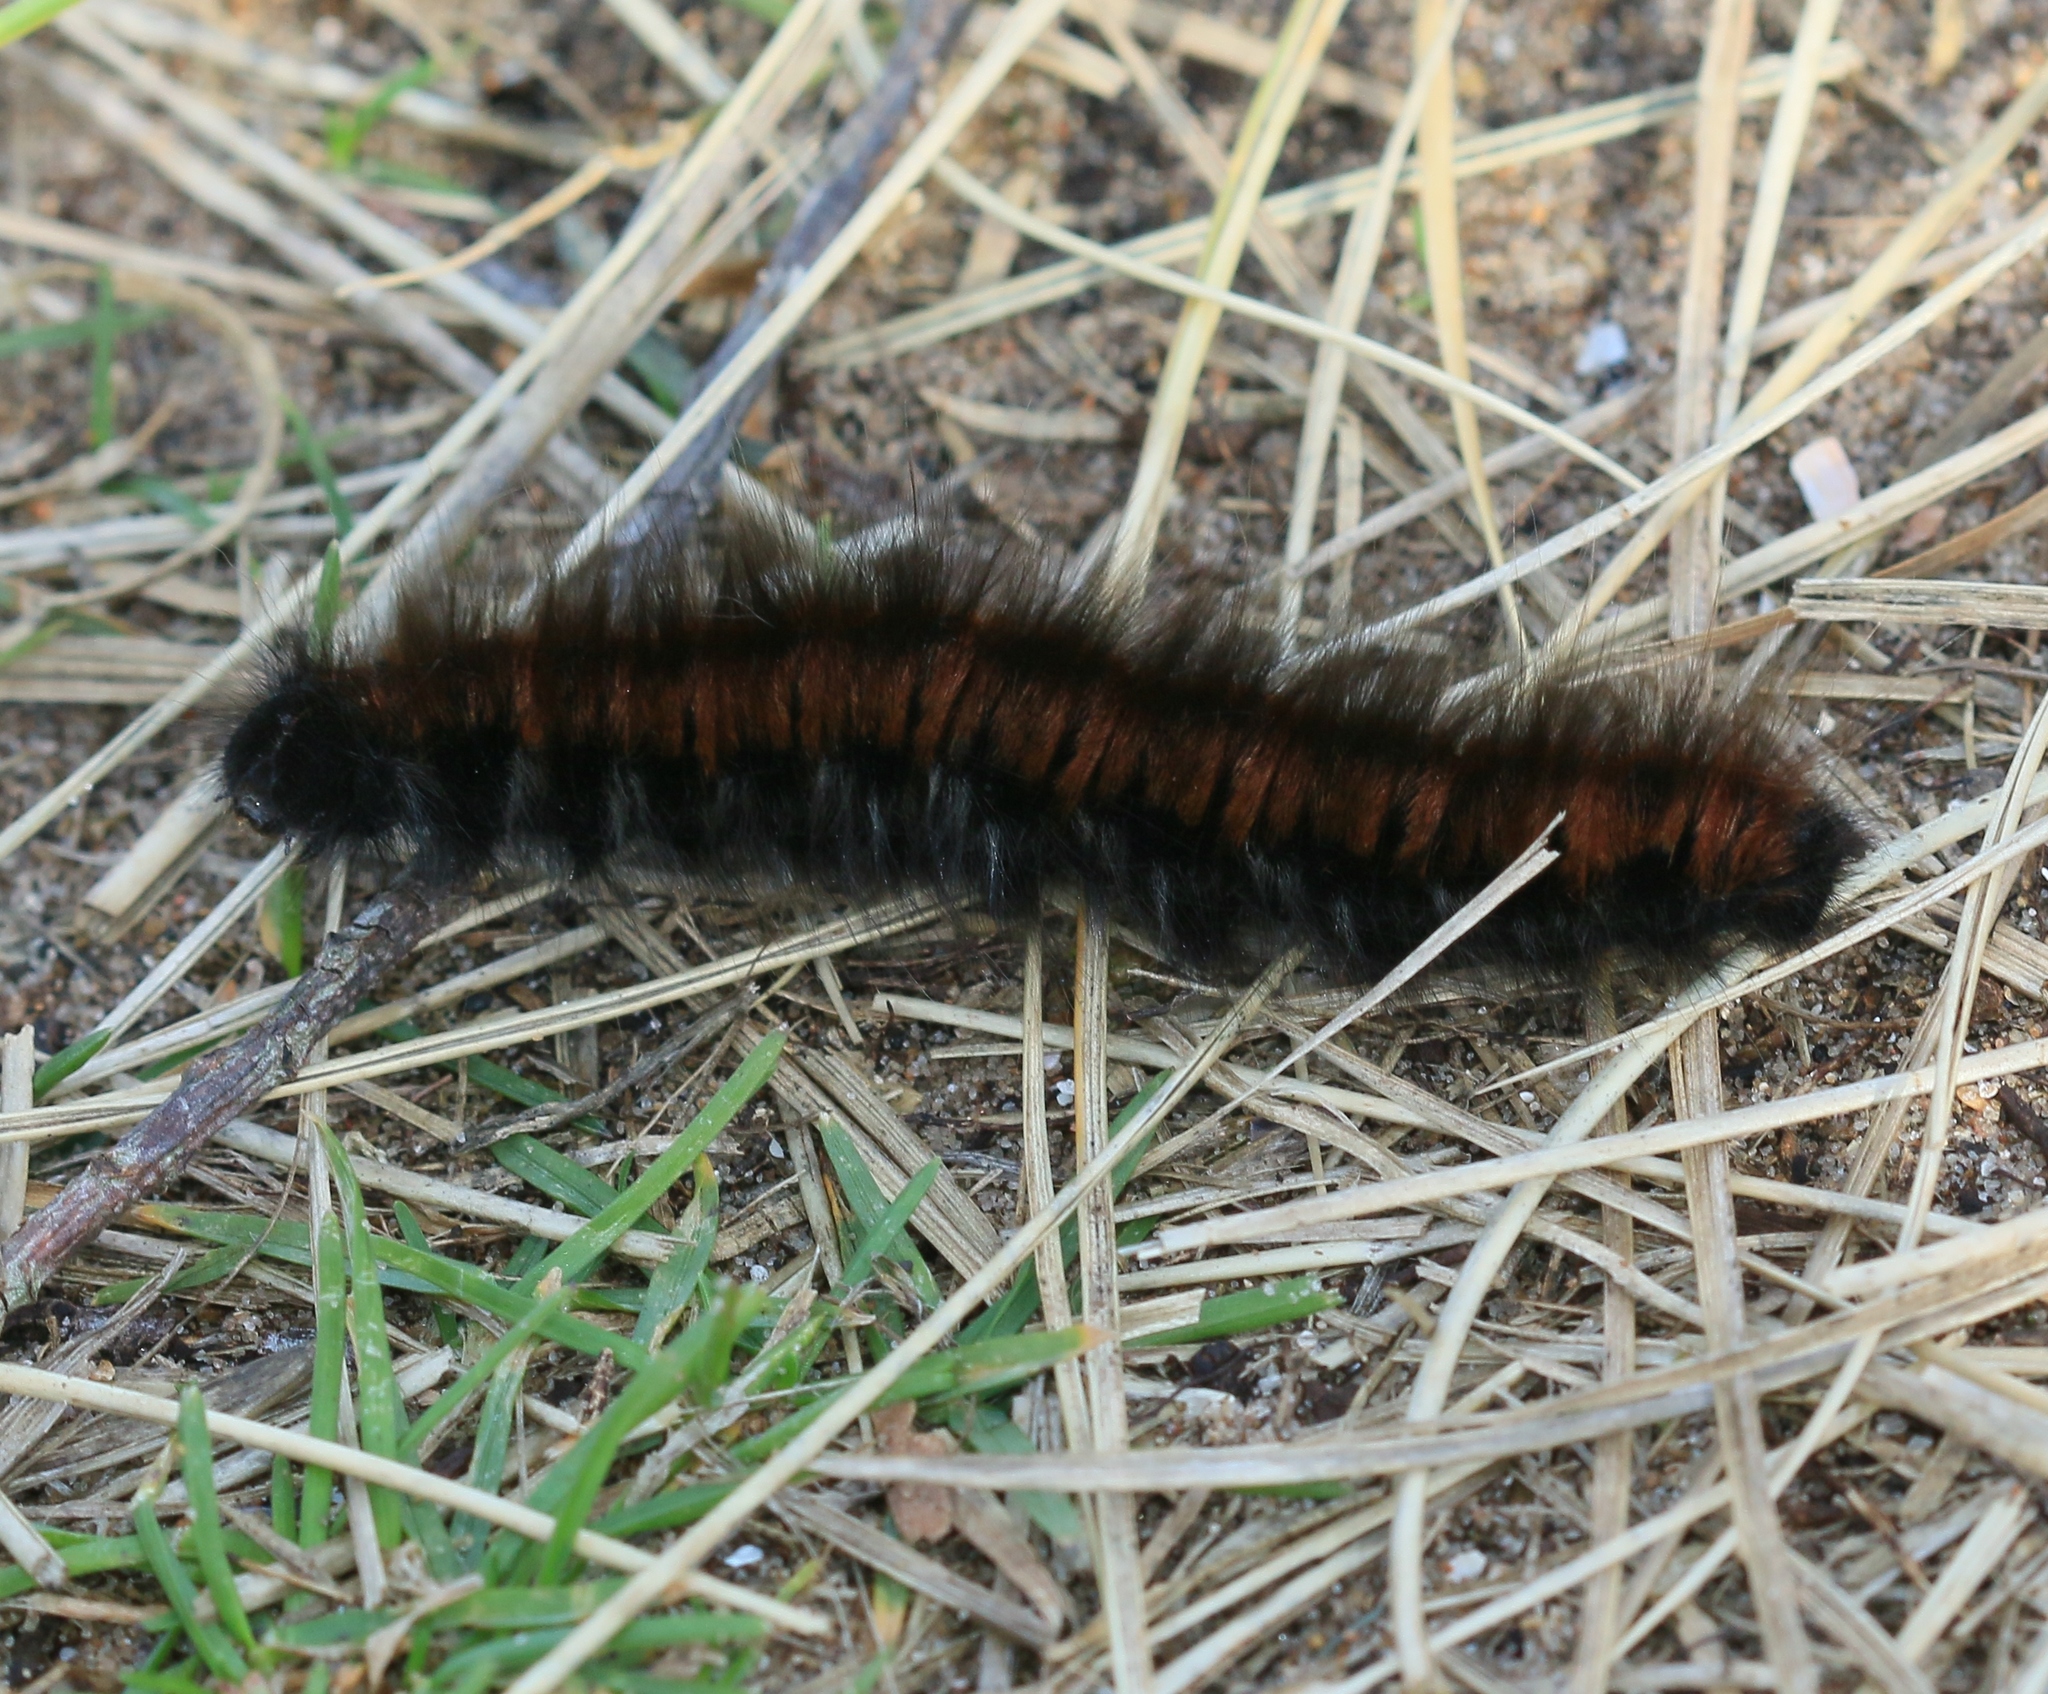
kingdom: Animalia
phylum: Arthropoda
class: Insecta
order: Lepidoptera
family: Lasiocampidae
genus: Macrothylacia
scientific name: Macrothylacia rubi
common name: Fox moth
